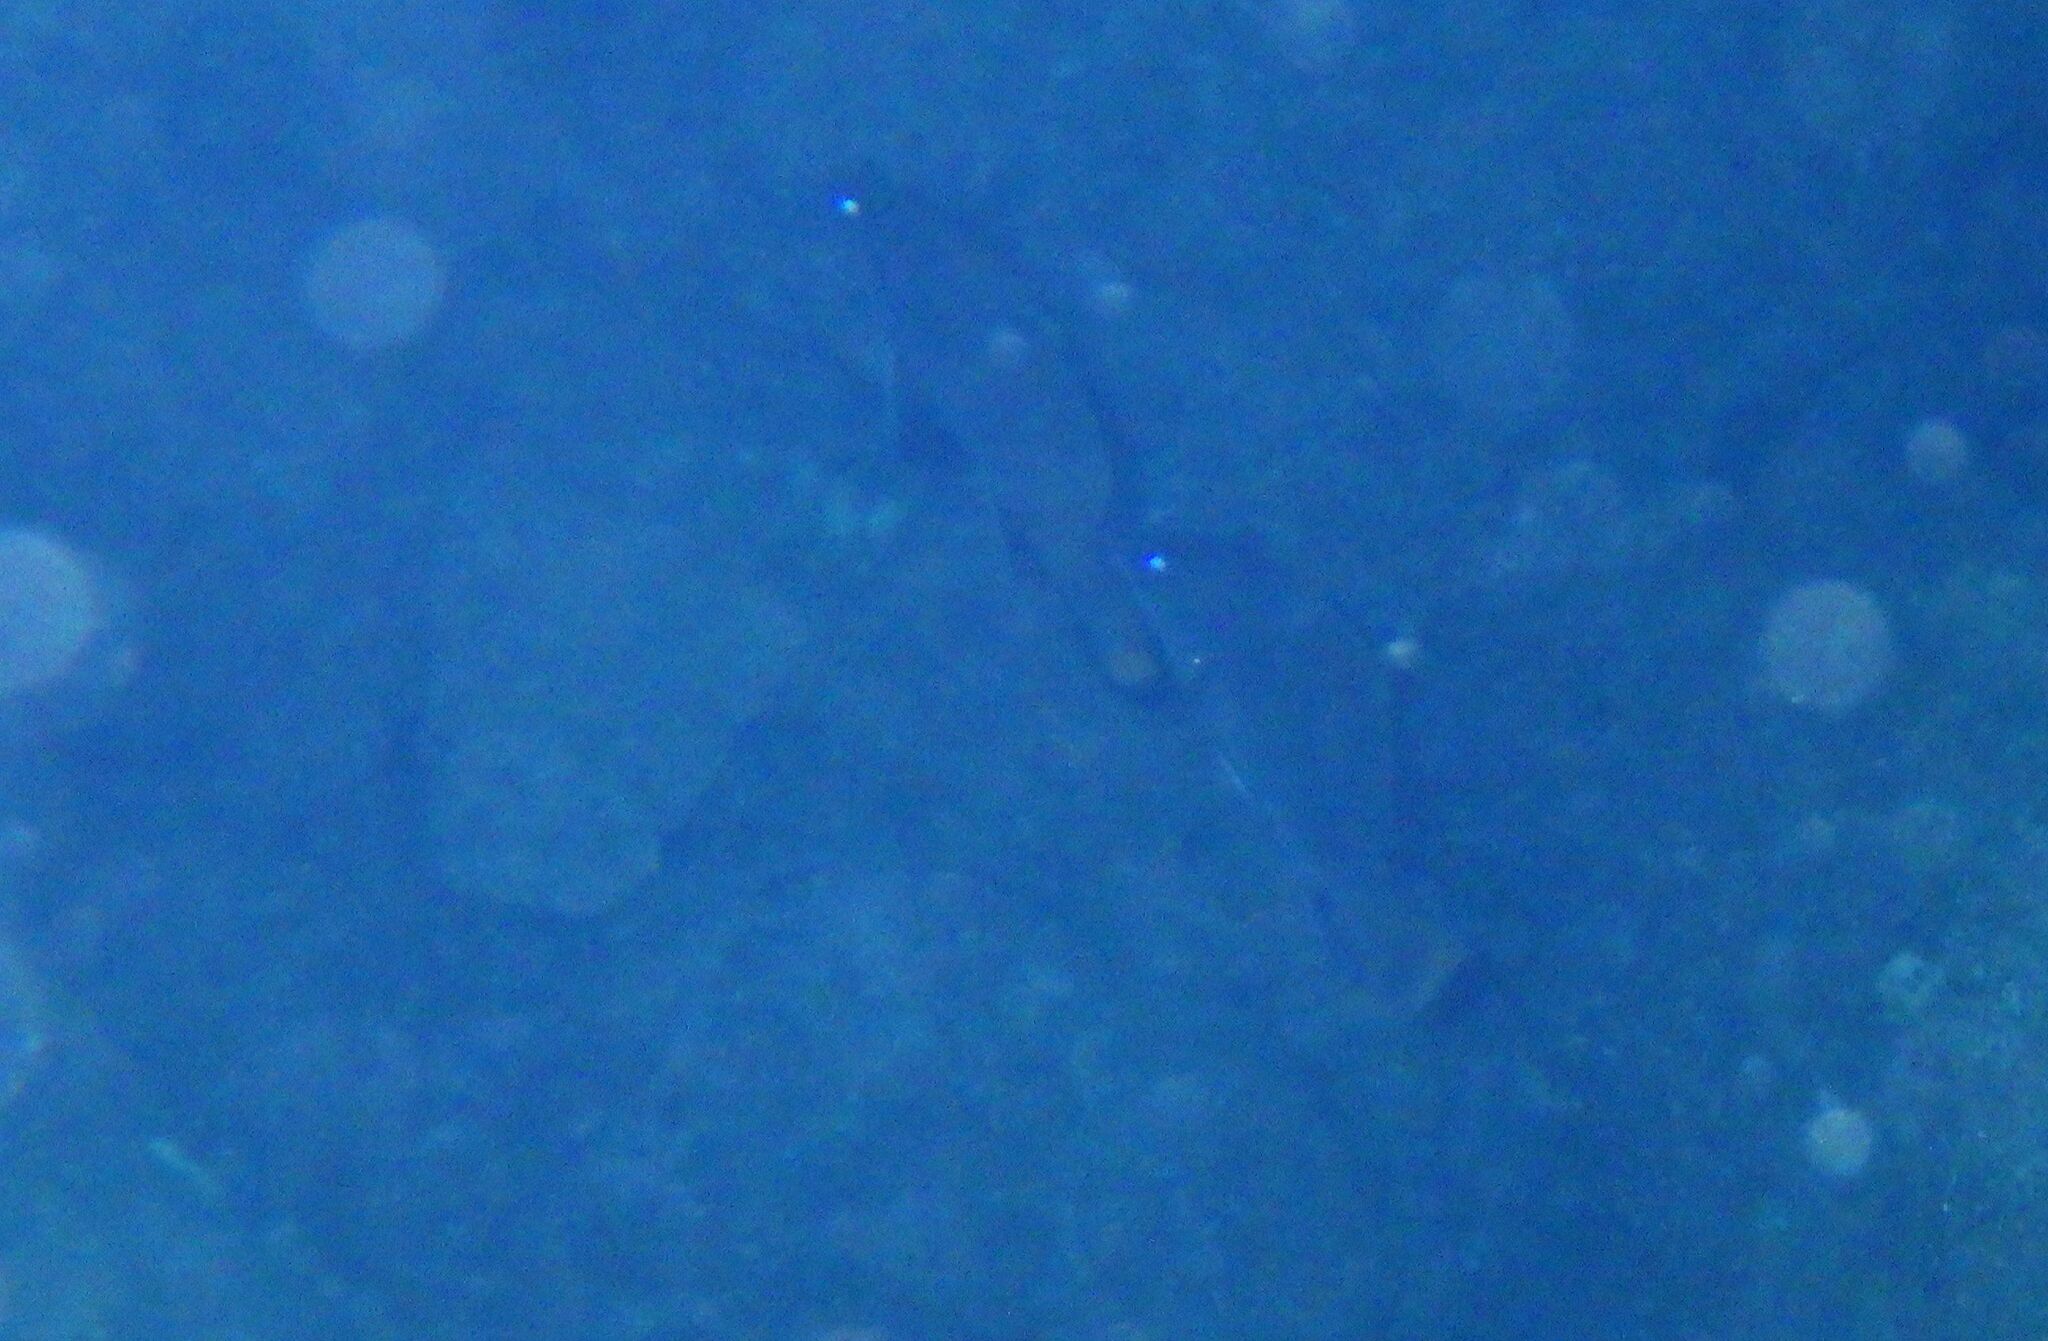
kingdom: Animalia
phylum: Chordata
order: Perciformes
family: Sciaenidae
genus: Sciaena
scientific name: Sciaena umbra
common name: Brown meagre
